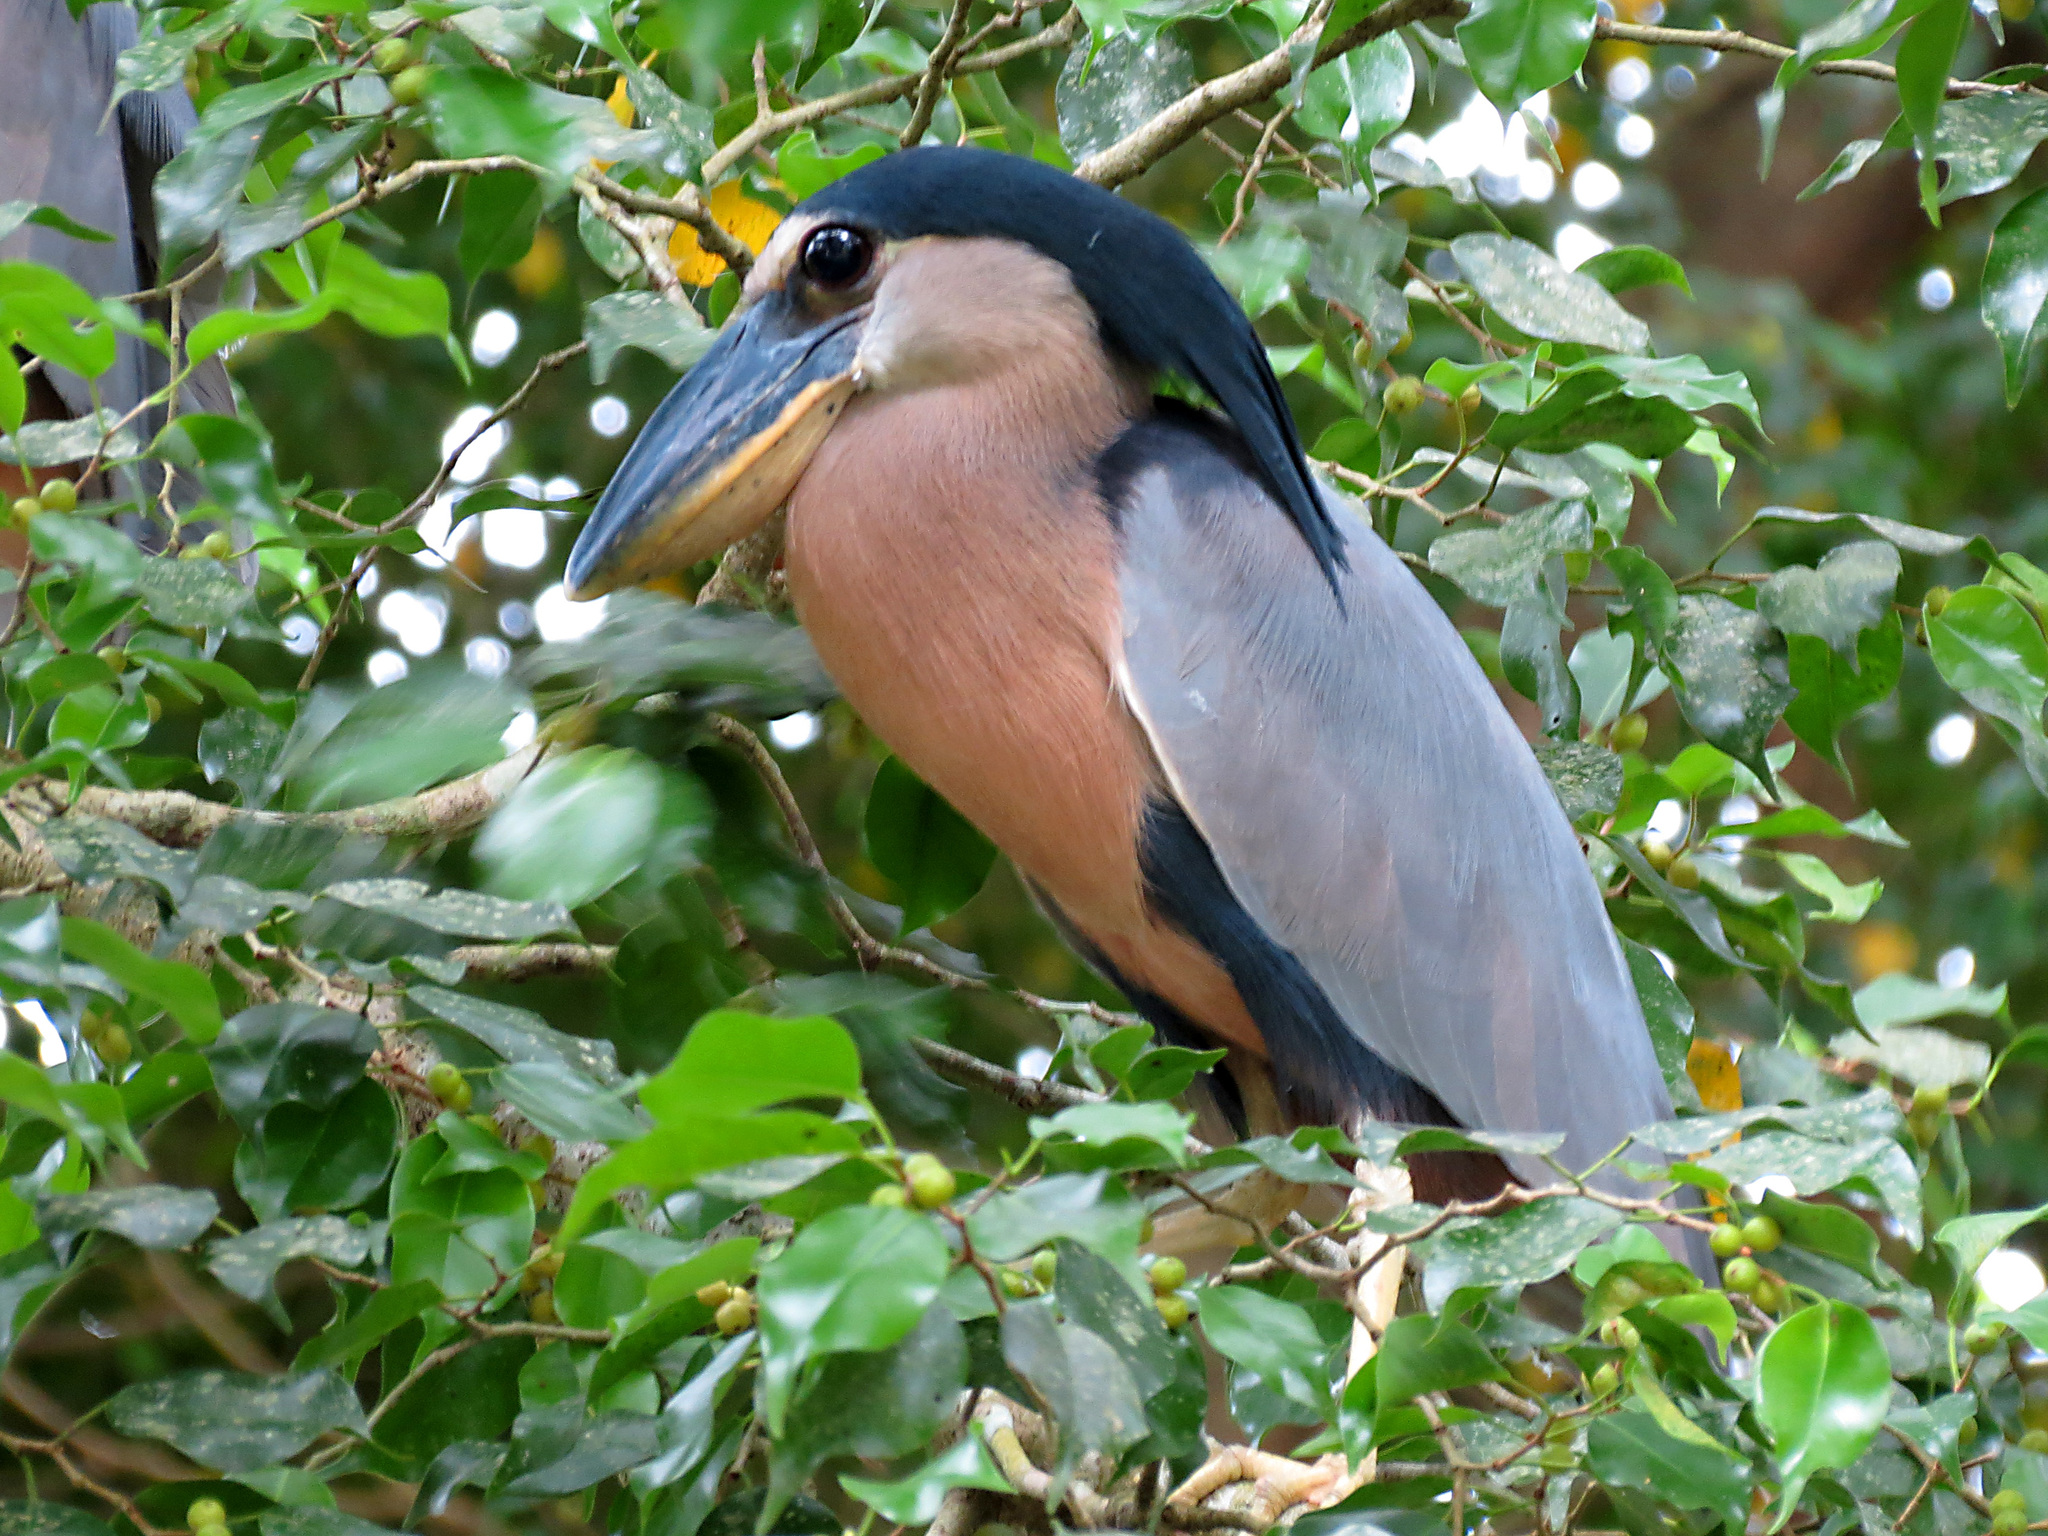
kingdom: Animalia
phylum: Chordata
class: Aves
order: Pelecaniformes
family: Ardeidae
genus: Cochlearius
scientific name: Cochlearius cochlearius
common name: Boat-billed heron
